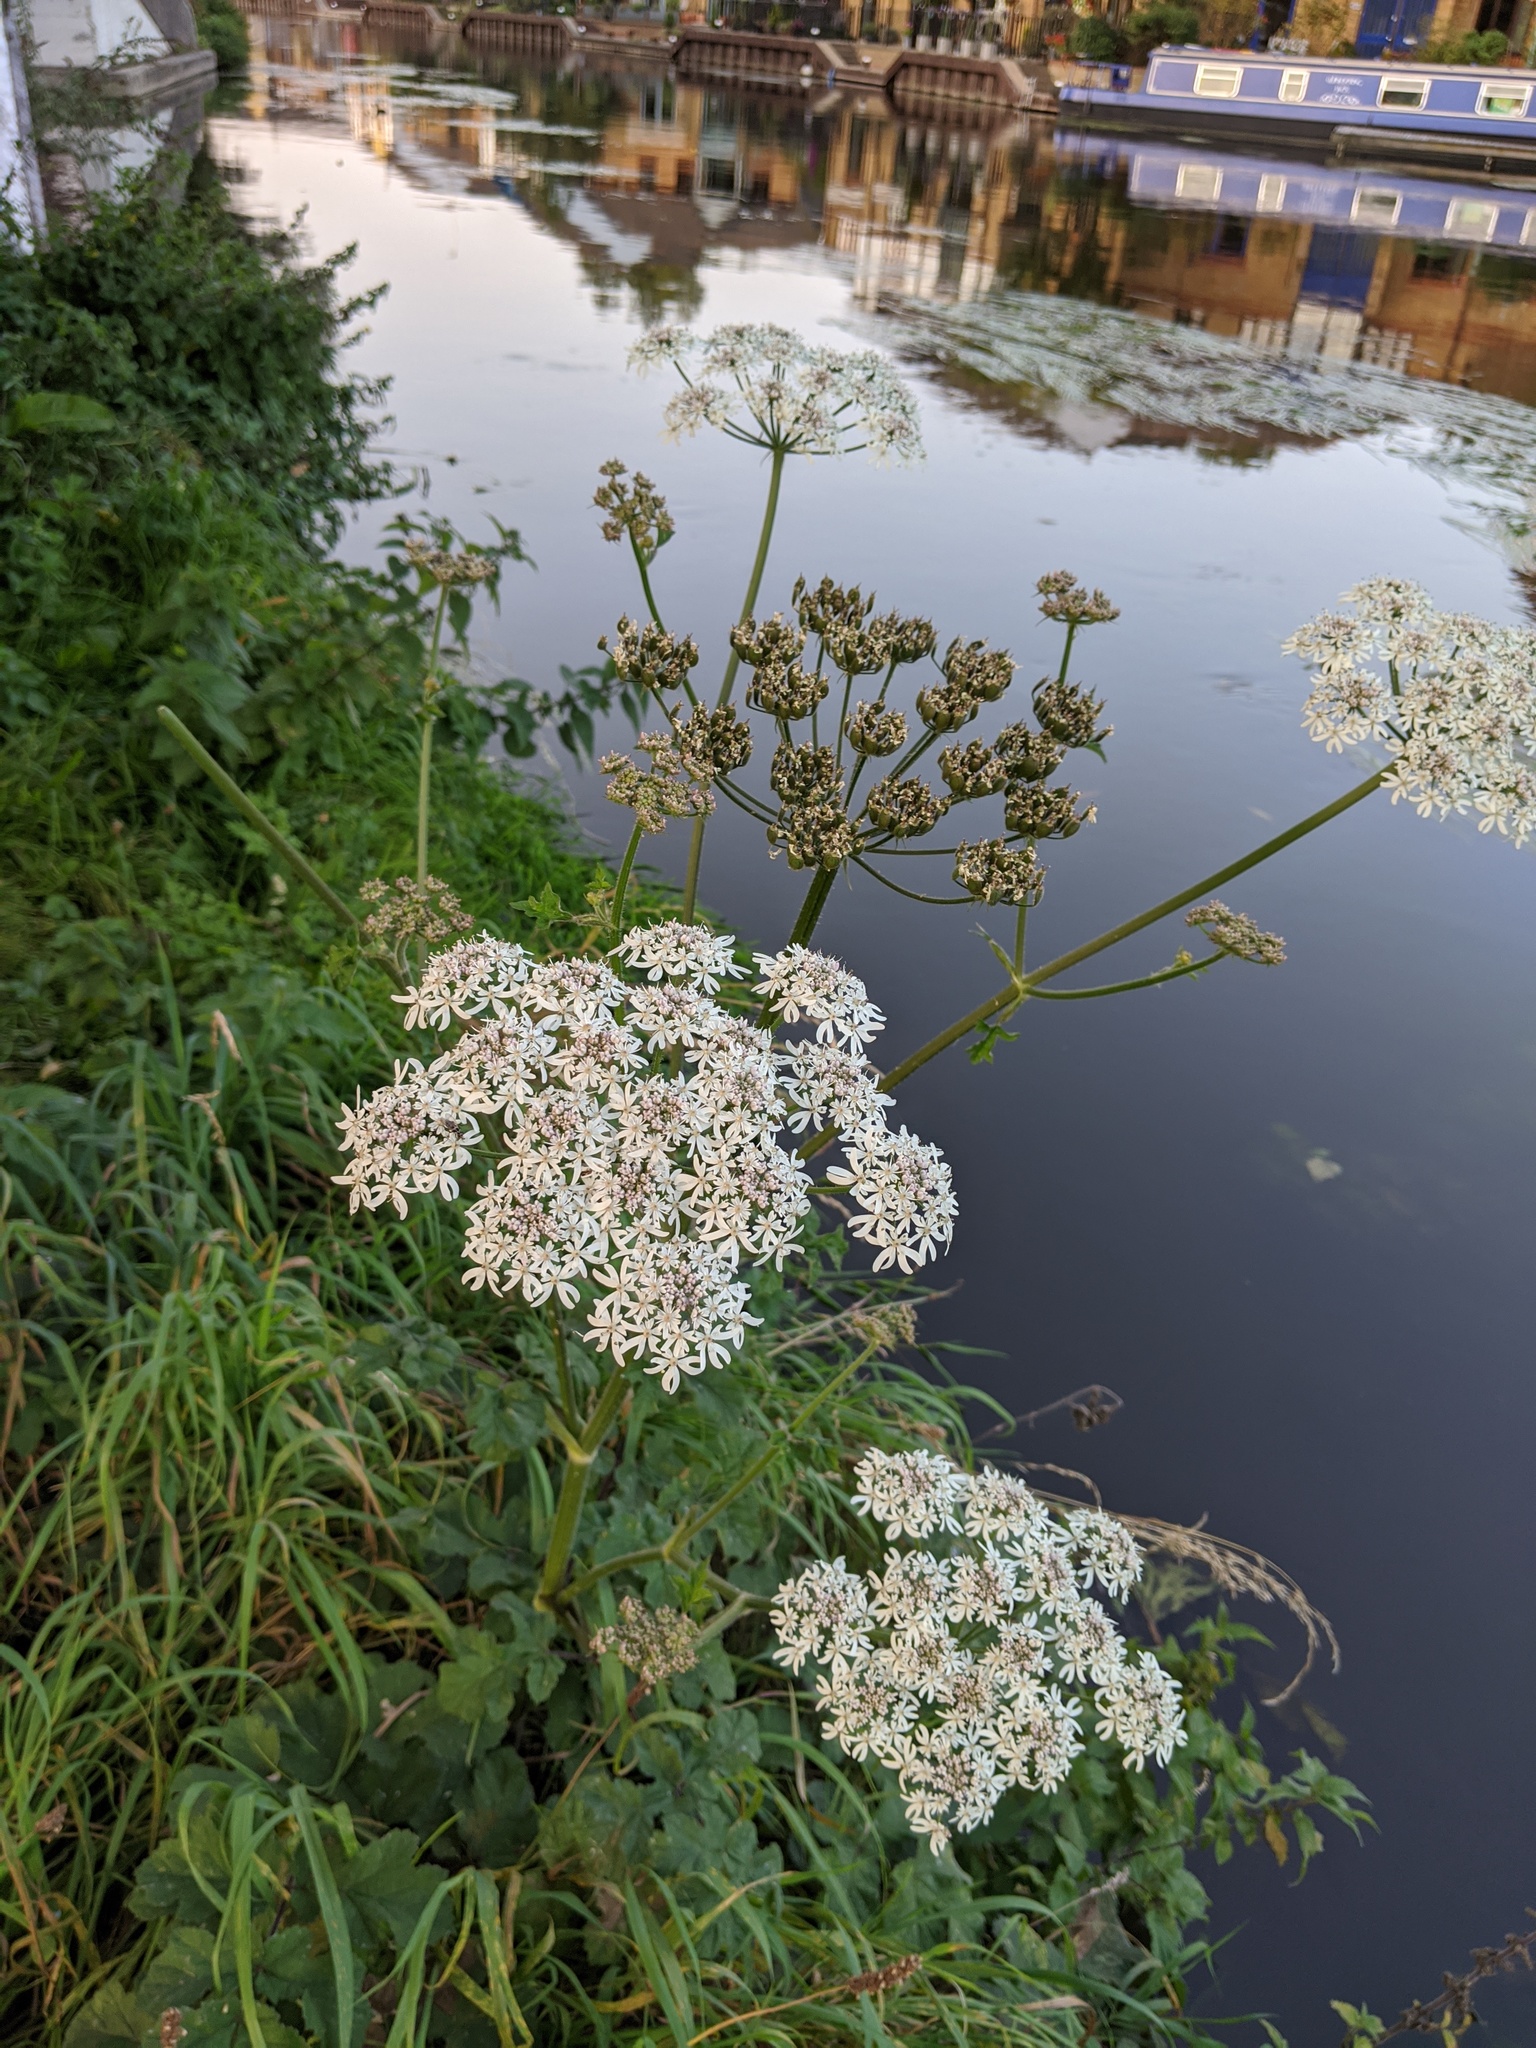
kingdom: Plantae
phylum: Tracheophyta
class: Magnoliopsida
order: Apiales
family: Apiaceae
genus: Heracleum
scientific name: Heracleum sphondylium
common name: Hogweed
